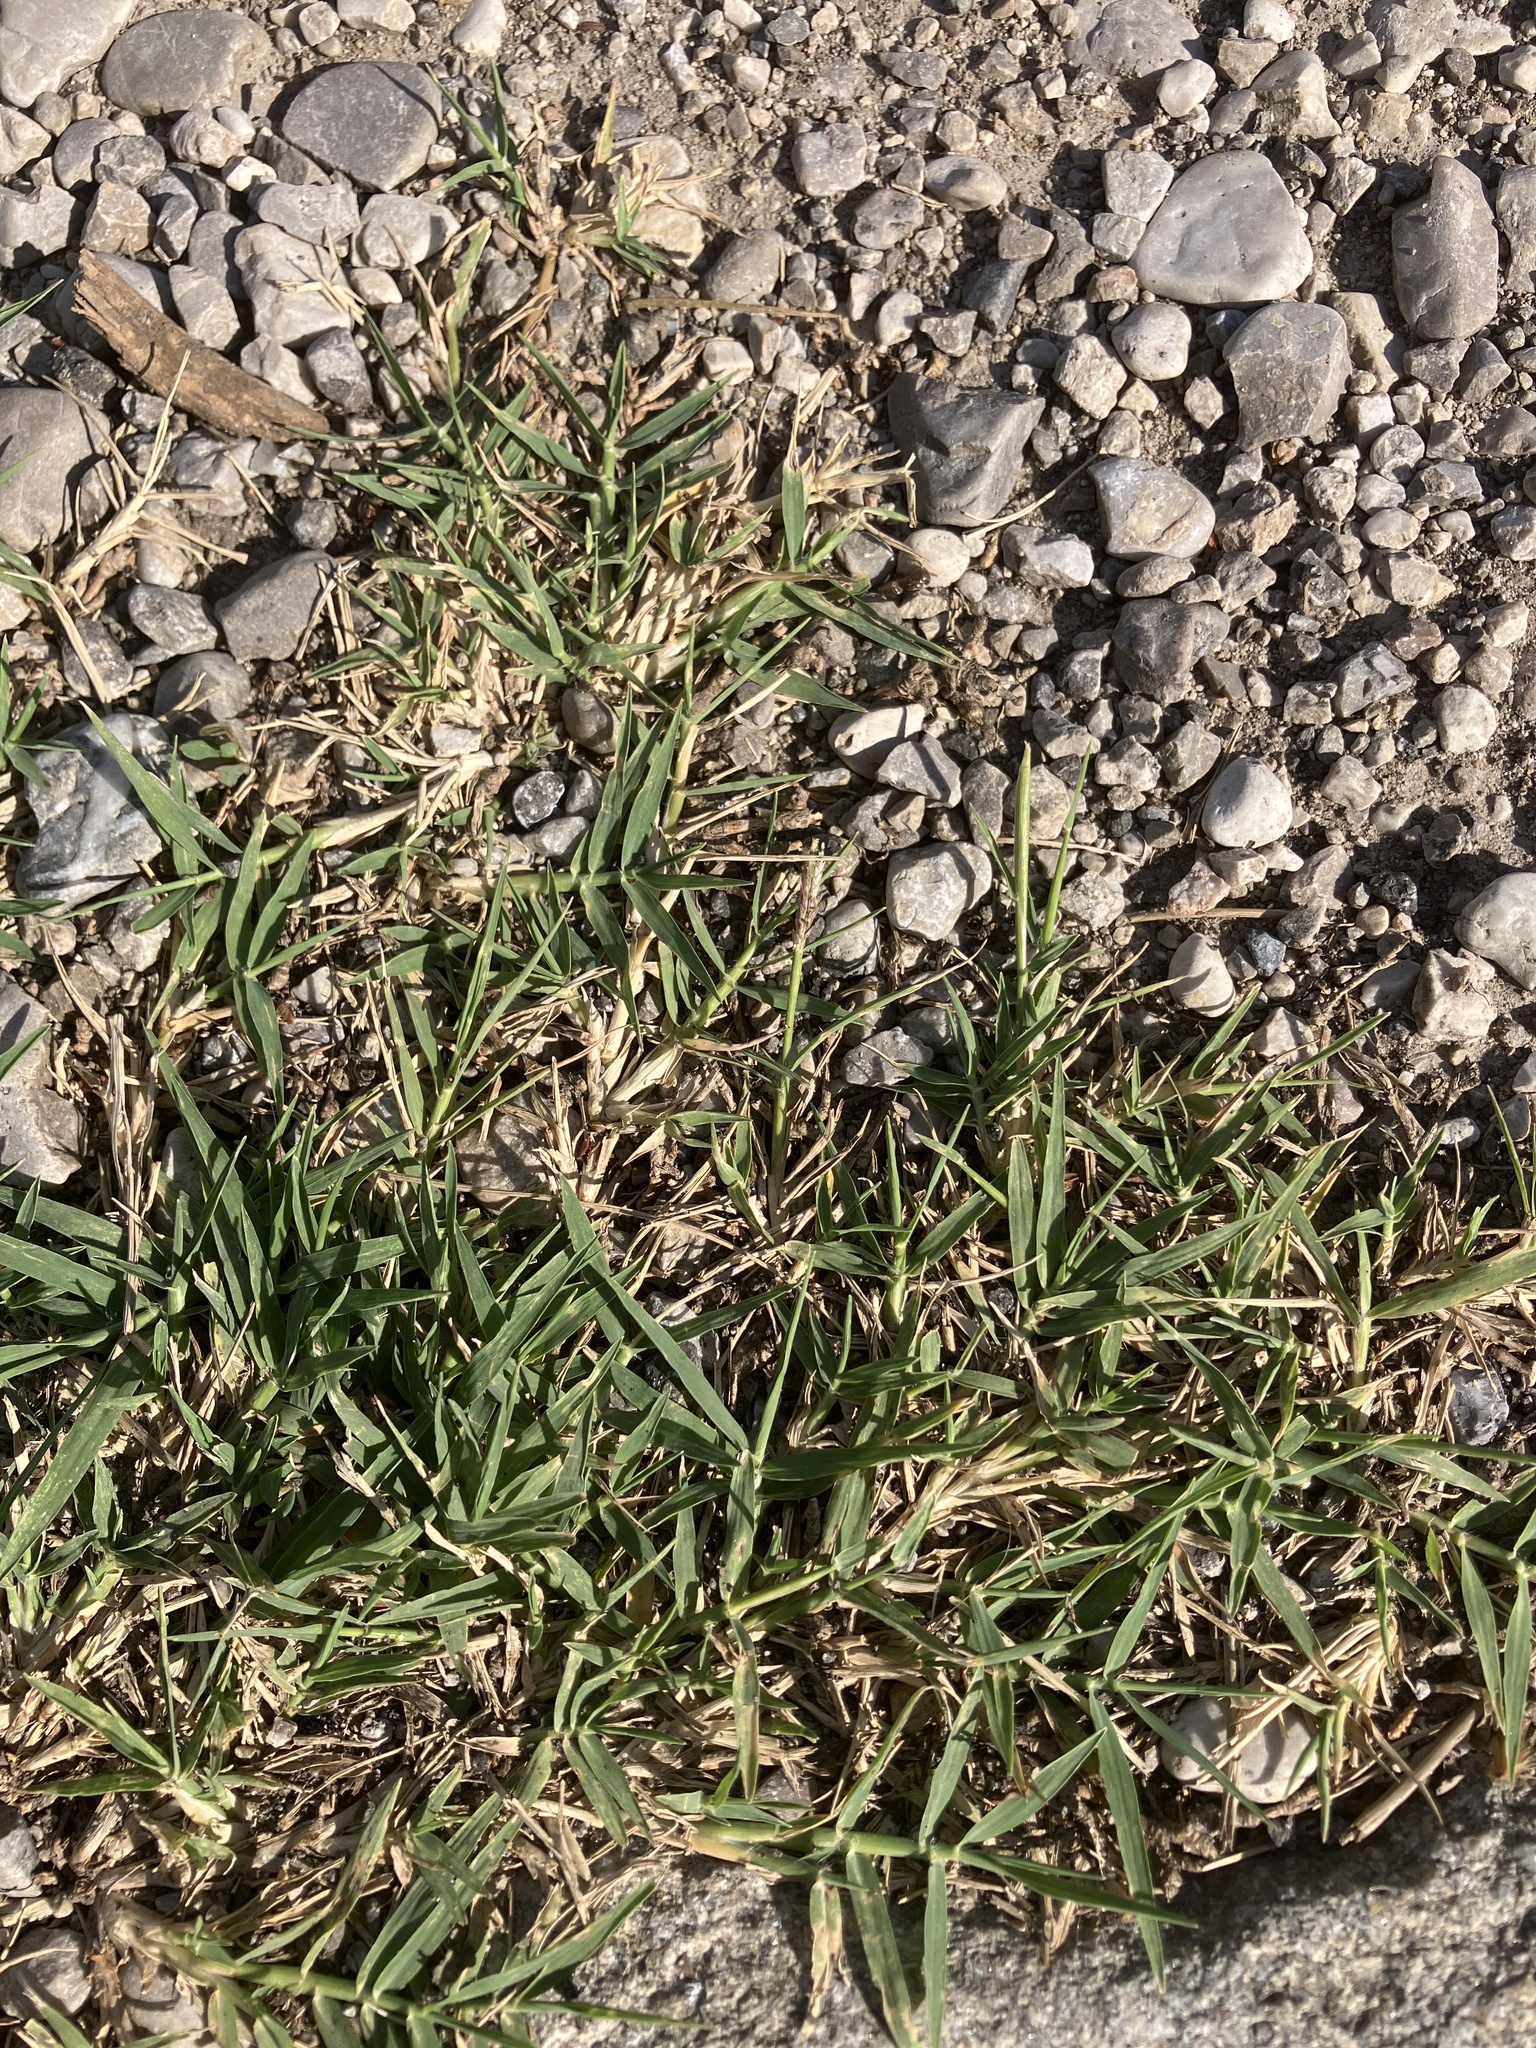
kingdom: Plantae
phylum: Tracheophyta
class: Liliopsida
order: Poales
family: Poaceae
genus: Cynodon
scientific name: Cynodon dactylon
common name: Bermuda grass
